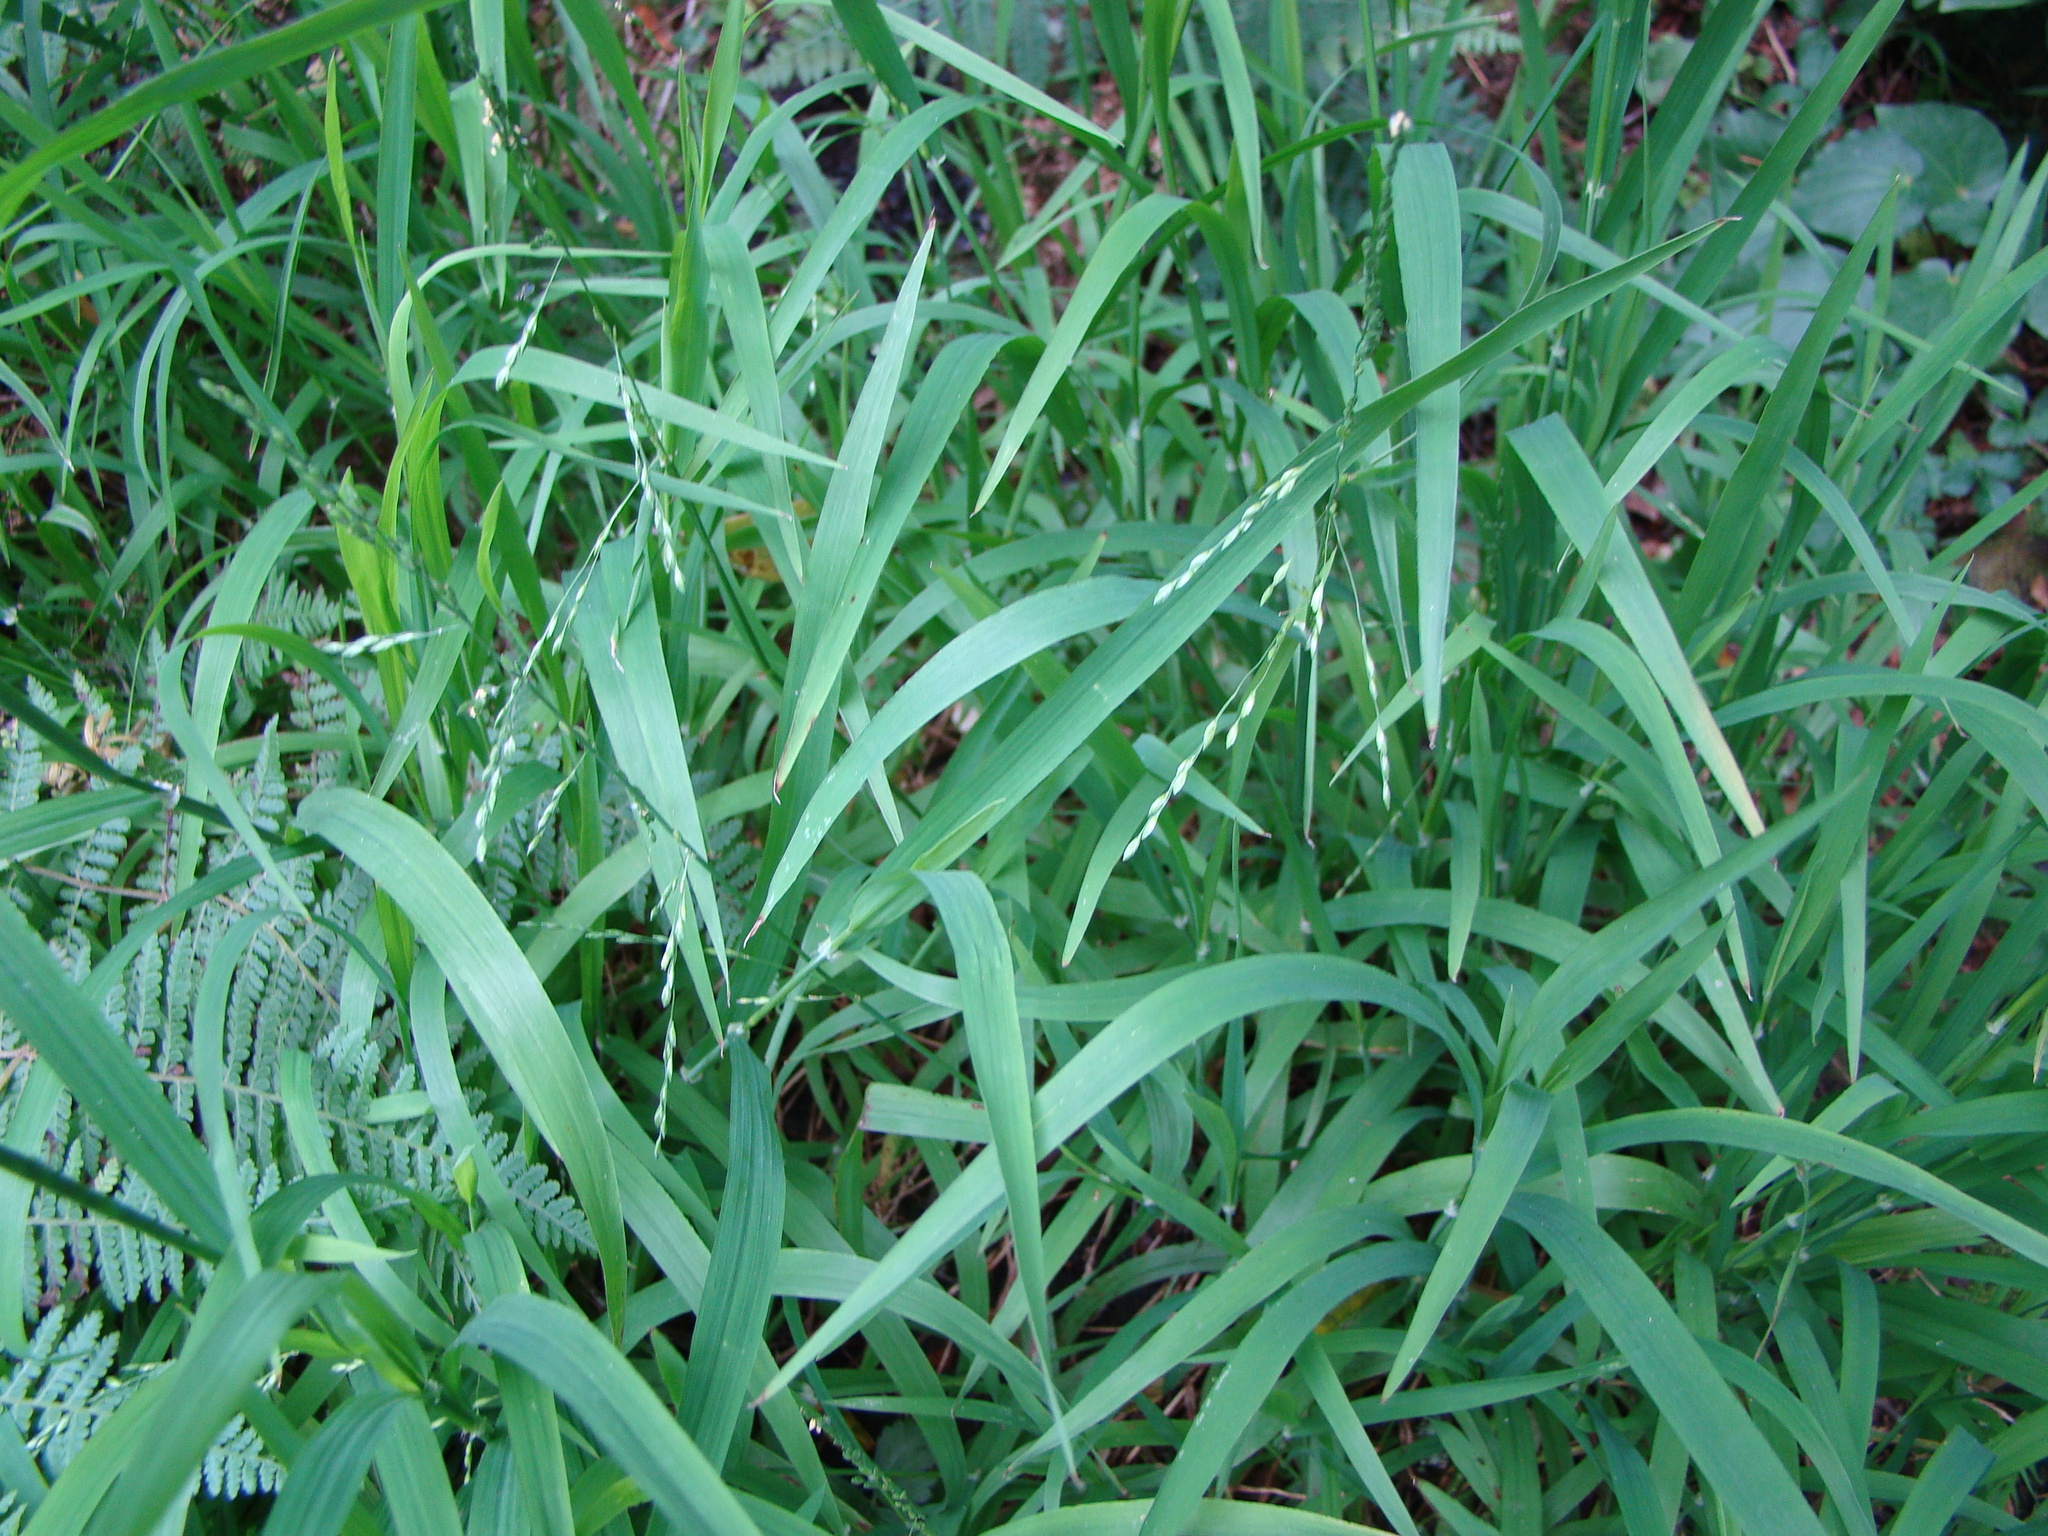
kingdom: Plantae
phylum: Tracheophyta
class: Liliopsida
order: Poales
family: Poaceae
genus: Ehrharta
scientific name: Ehrharta erecta
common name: Panic veldtgrass
